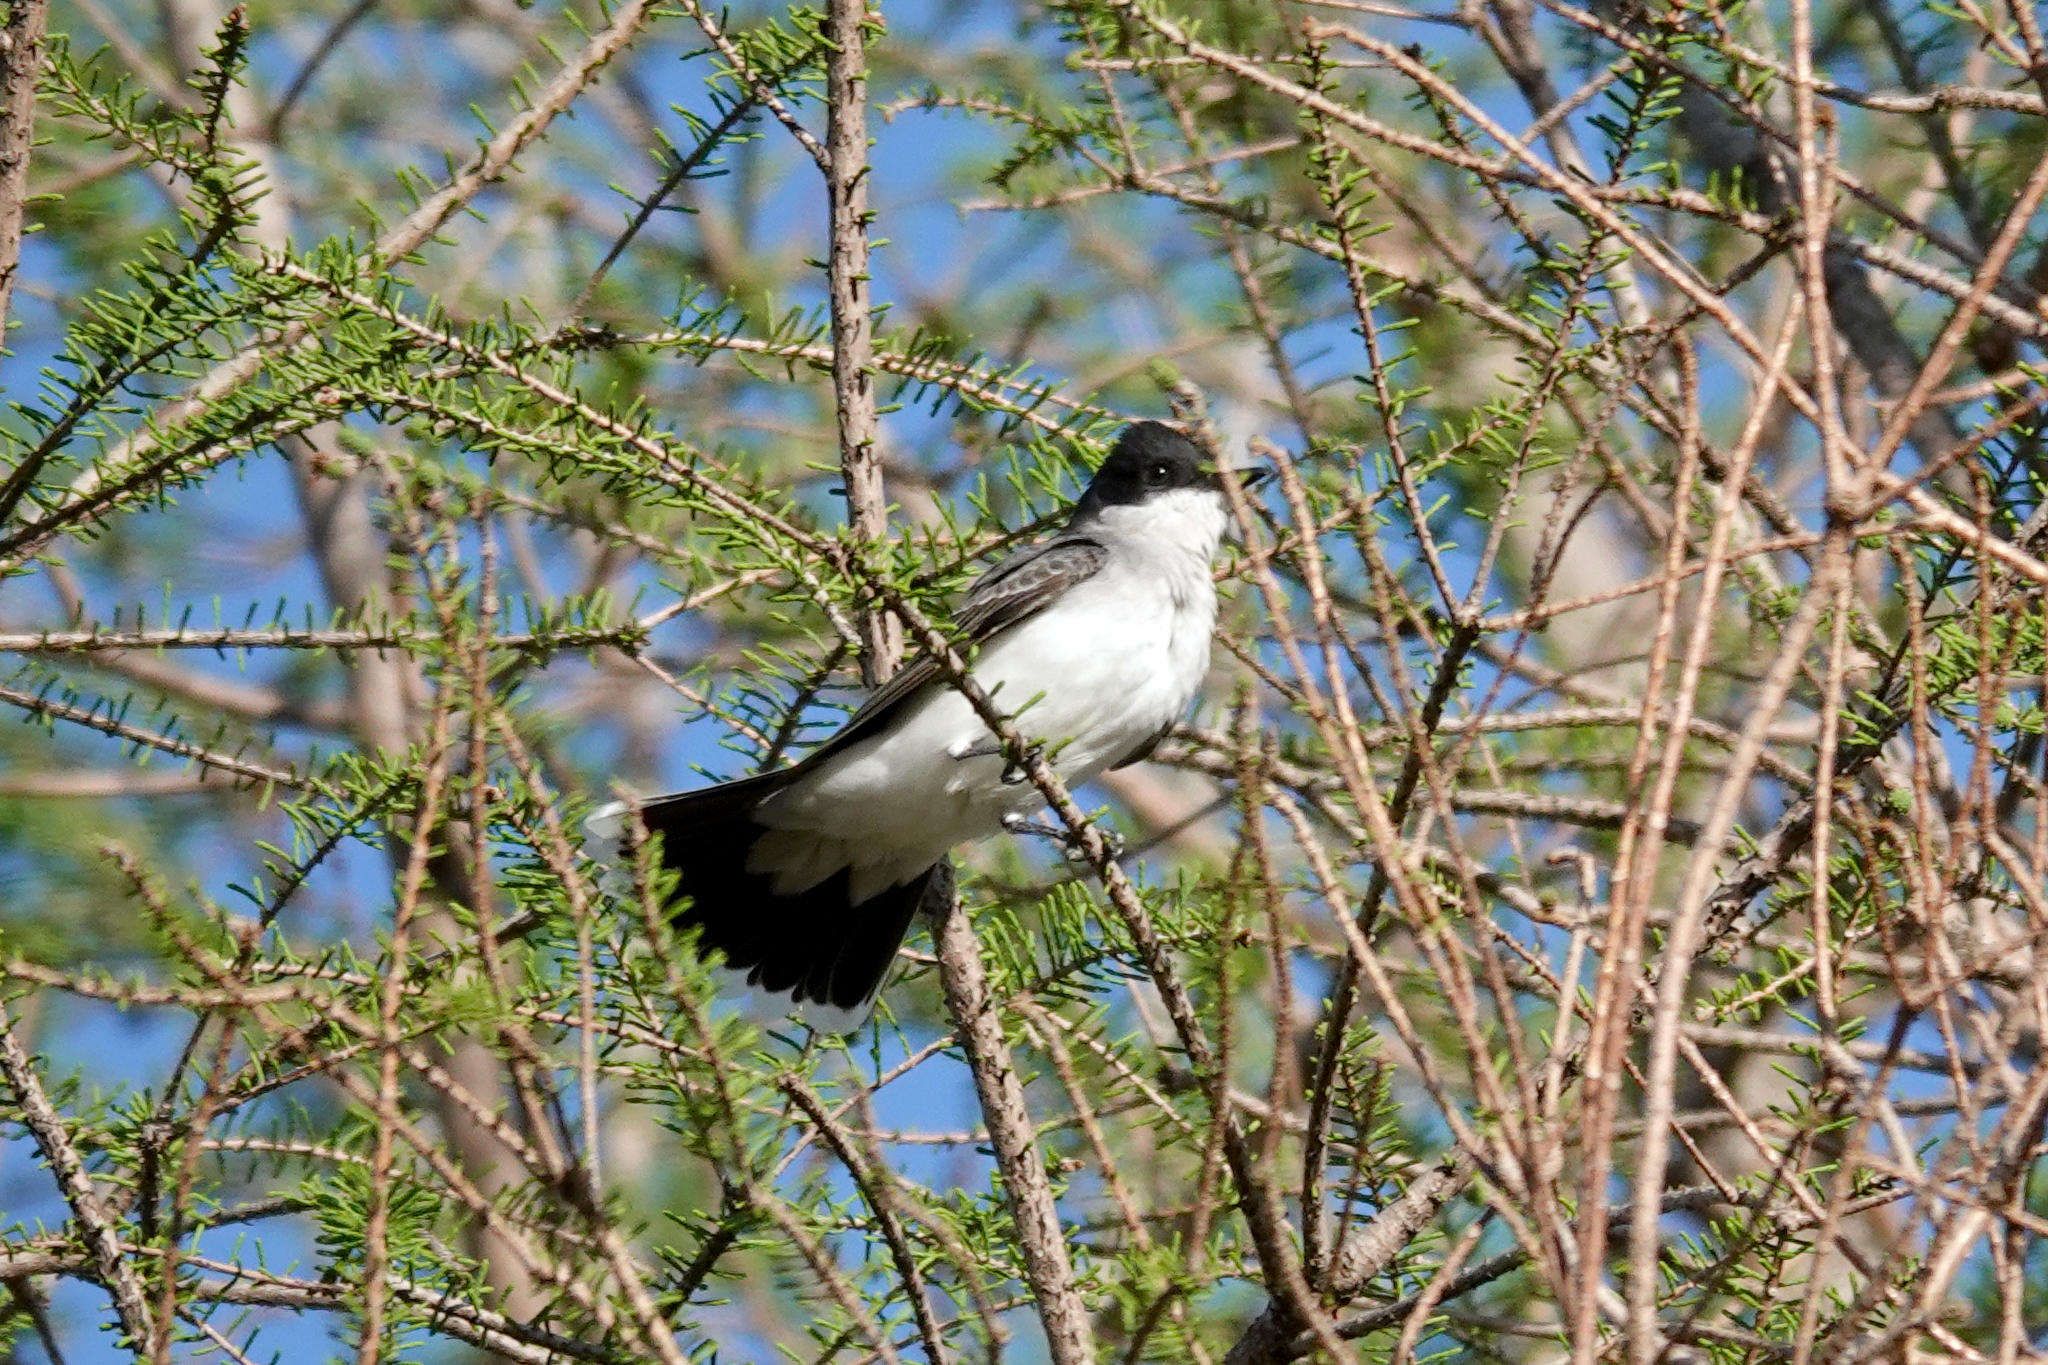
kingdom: Animalia
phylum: Chordata
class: Aves
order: Passeriformes
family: Tyrannidae
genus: Tyrannus
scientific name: Tyrannus tyrannus
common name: Eastern kingbird
